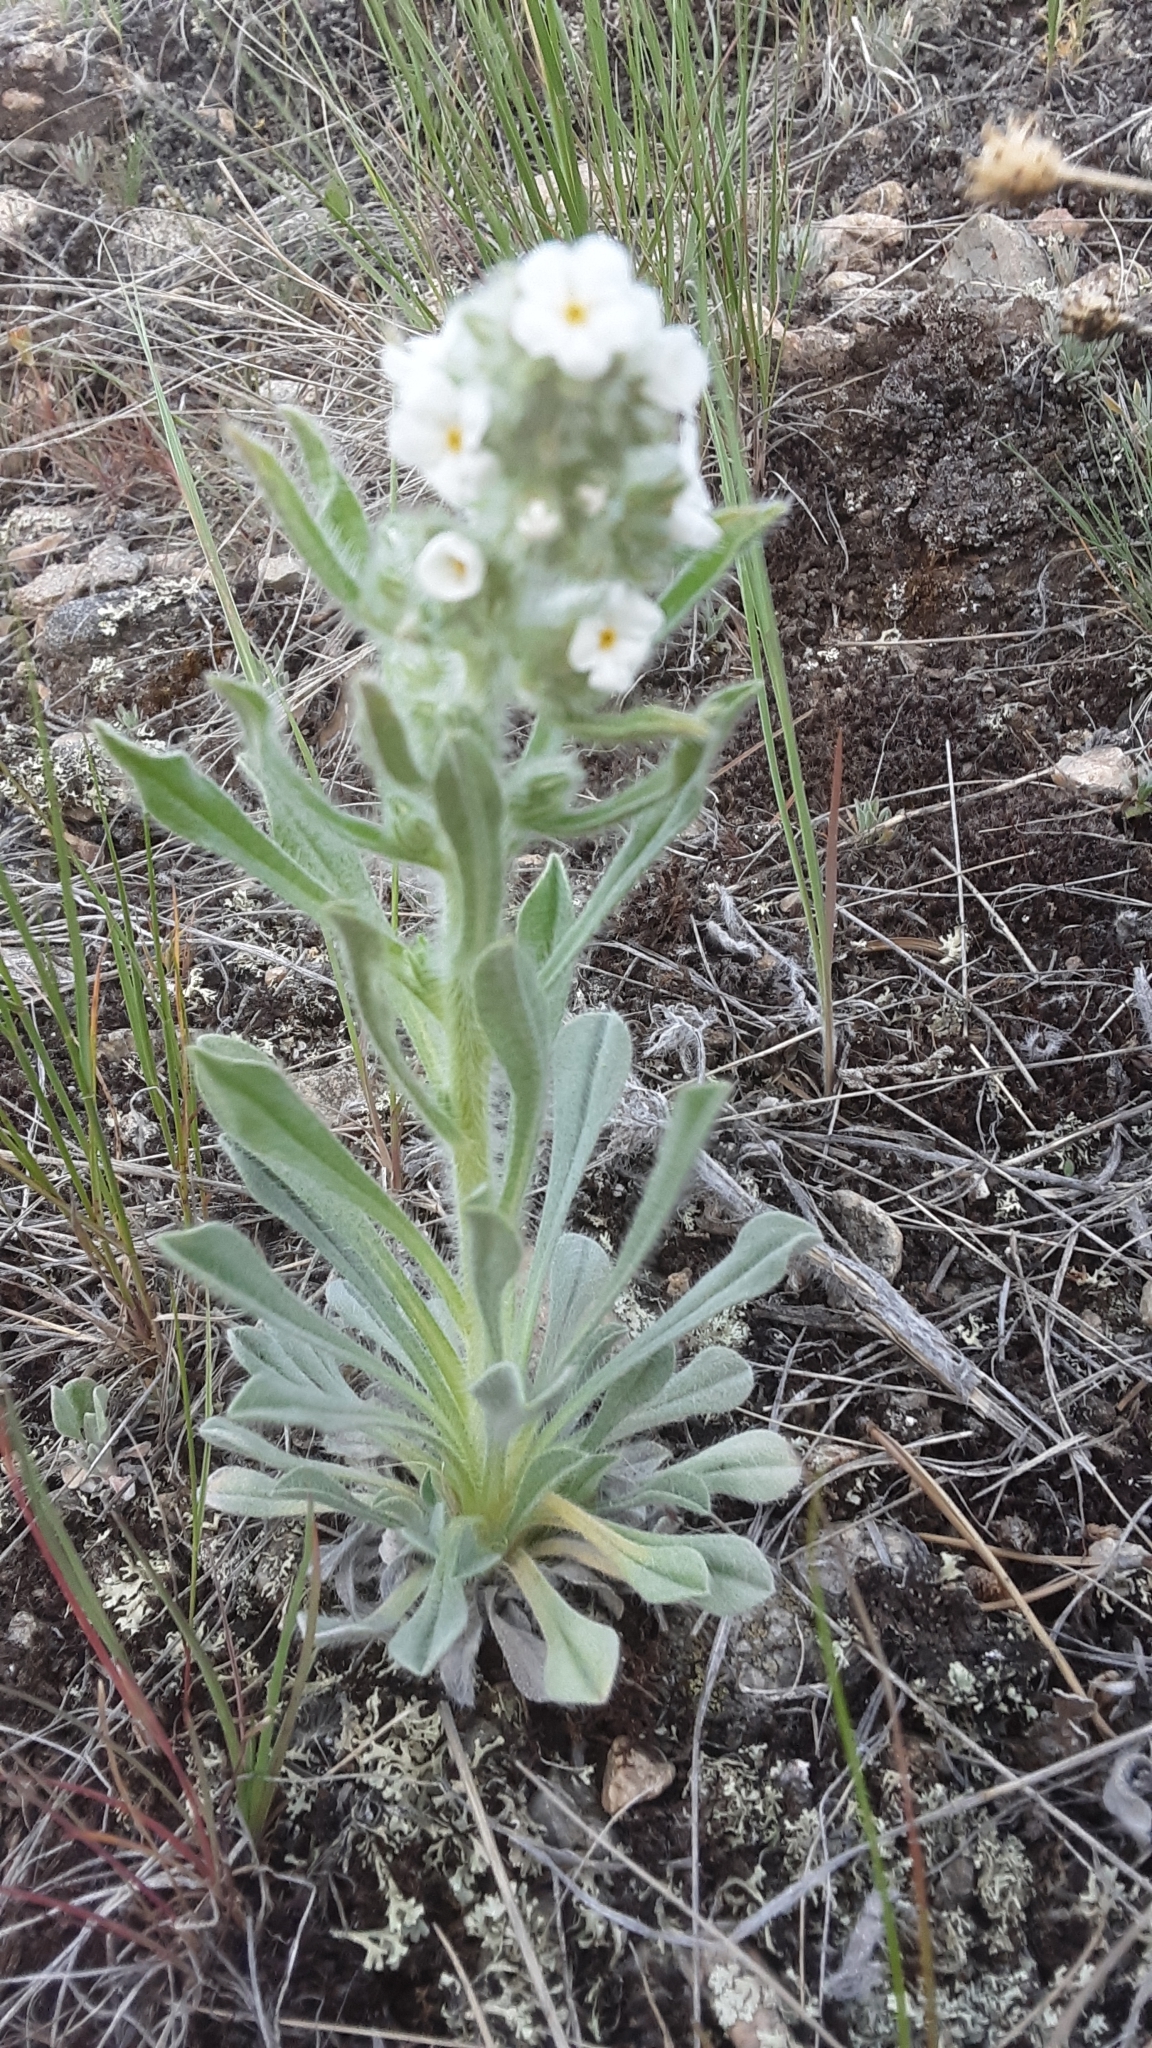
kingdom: Plantae
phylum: Tracheophyta
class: Magnoliopsida
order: Boraginales
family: Boraginaceae
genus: Oreocarya
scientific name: Oreocarya glomerata
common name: Macoun's cryptantha
